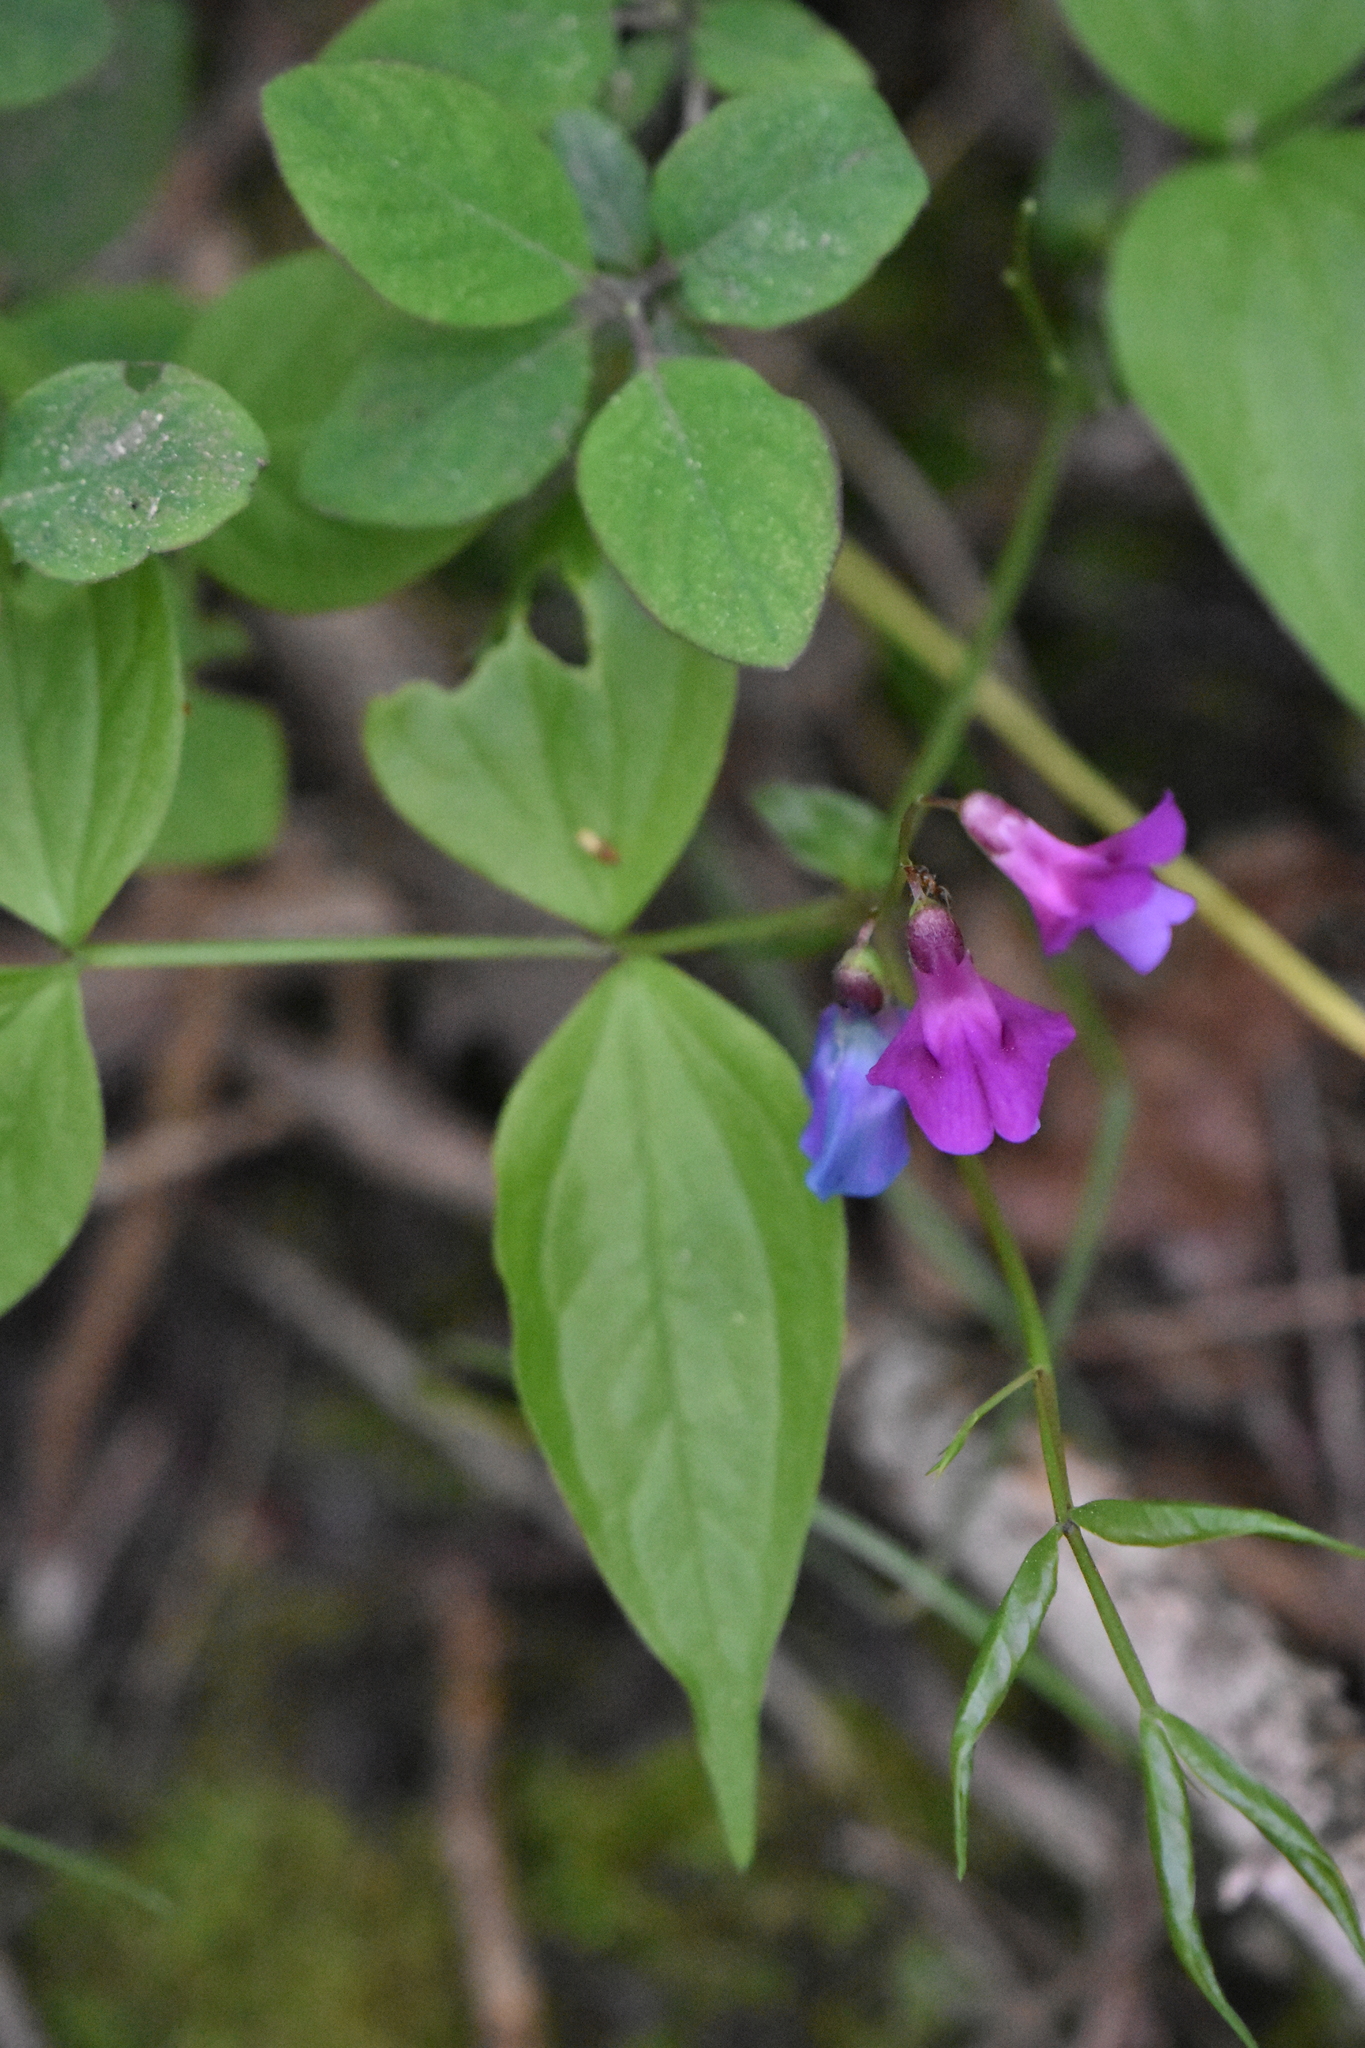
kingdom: Plantae
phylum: Tracheophyta
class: Magnoliopsida
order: Fabales
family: Fabaceae
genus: Lathyrus
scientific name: Lathyrus vernus
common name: Spring pea
